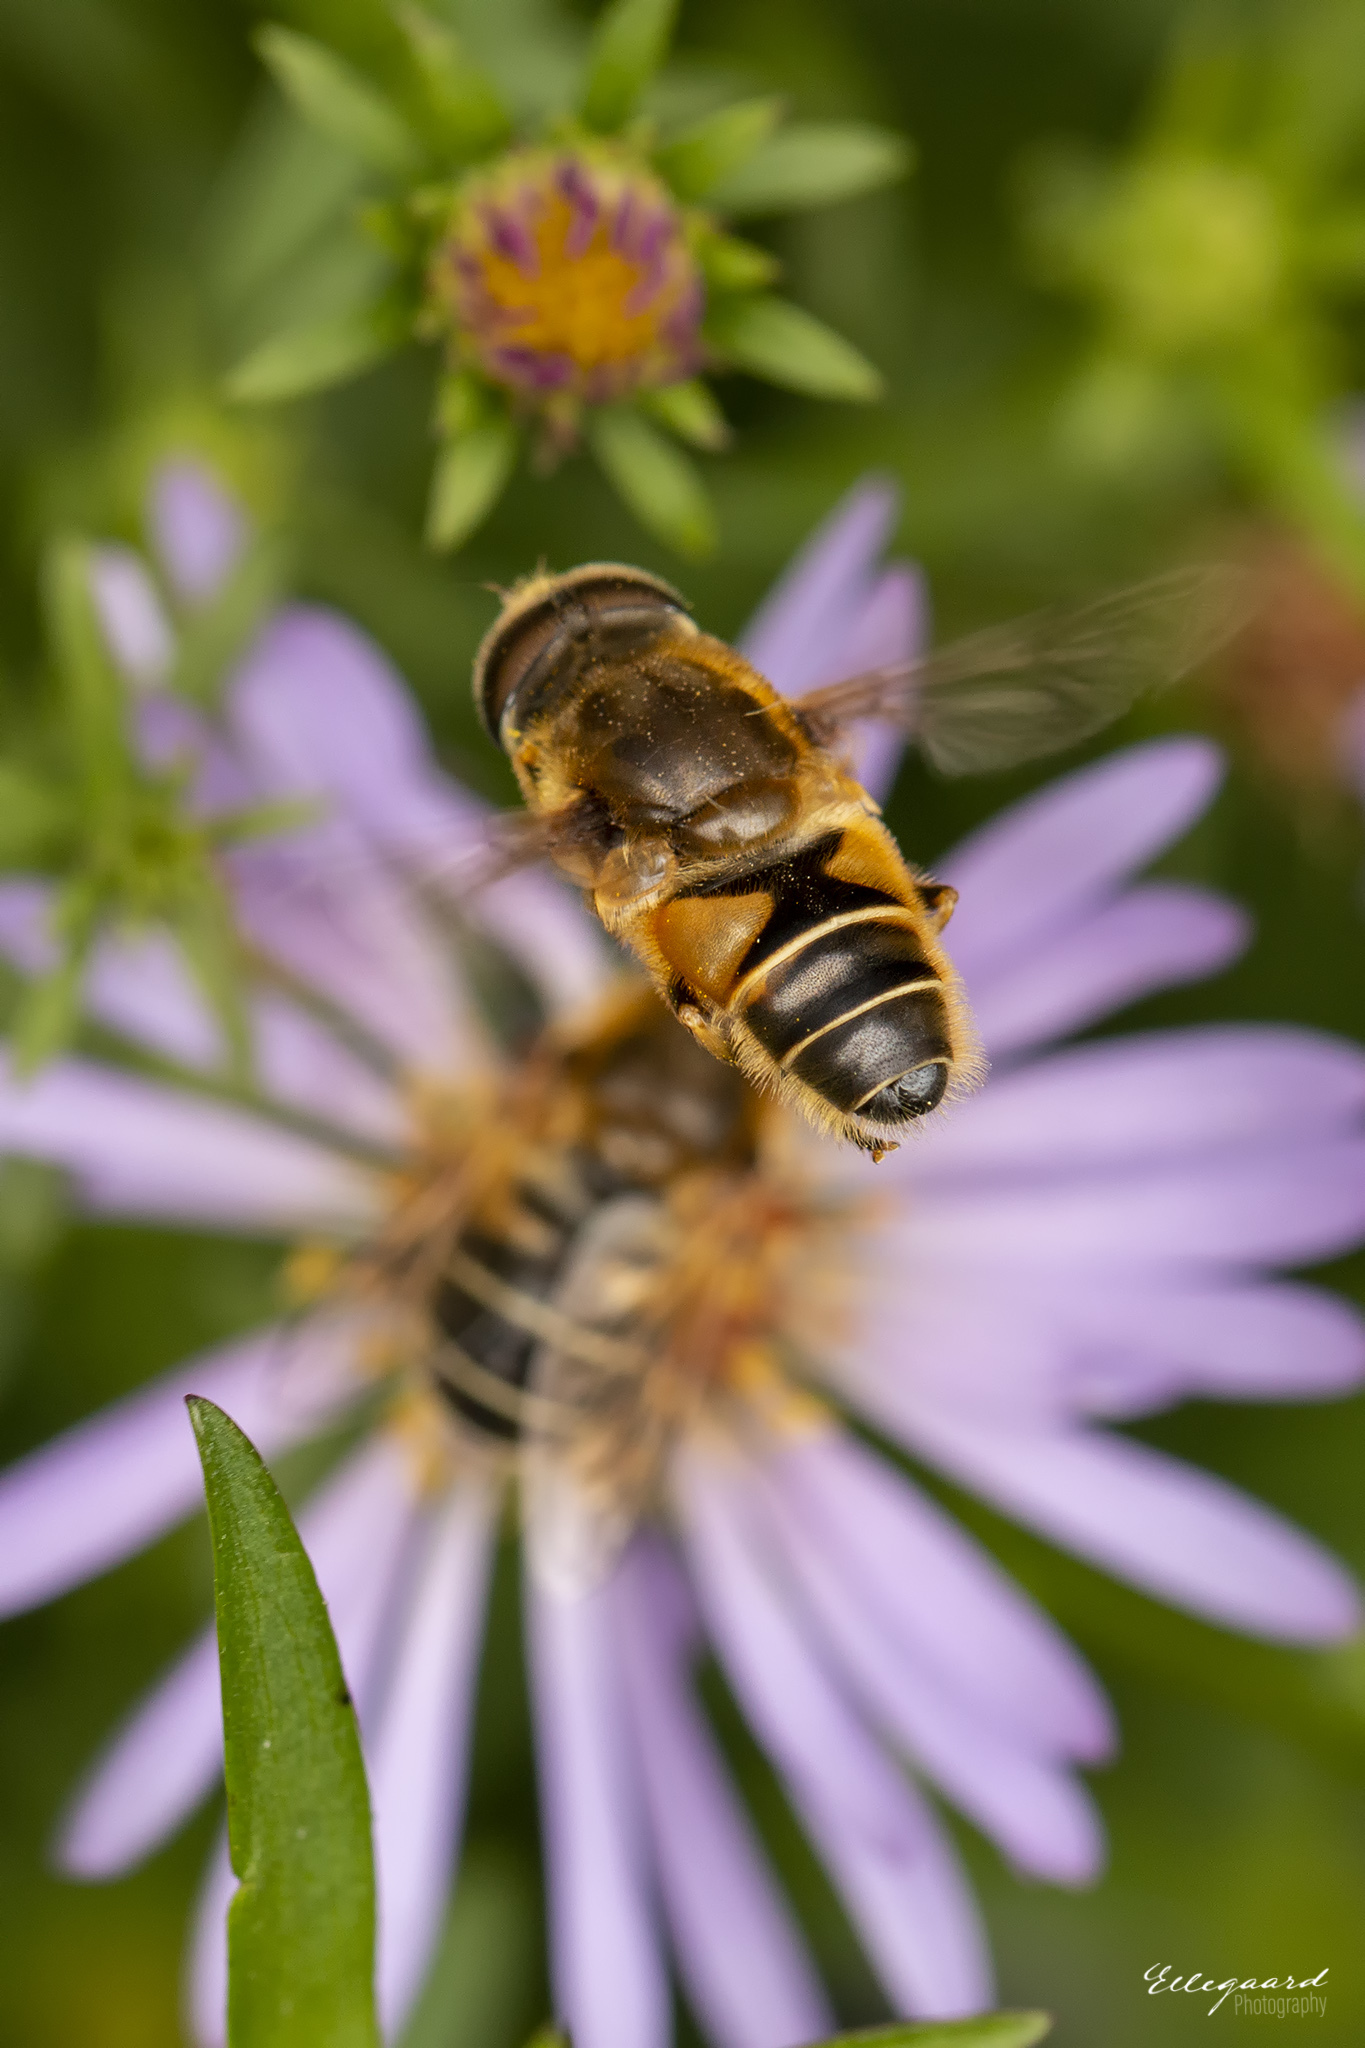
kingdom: Animalia
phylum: Arthropoda
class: Insecta
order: Diptera
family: Syrphidae
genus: Eristalis
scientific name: Eristalis nemorum
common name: Orange-spined drone fly
